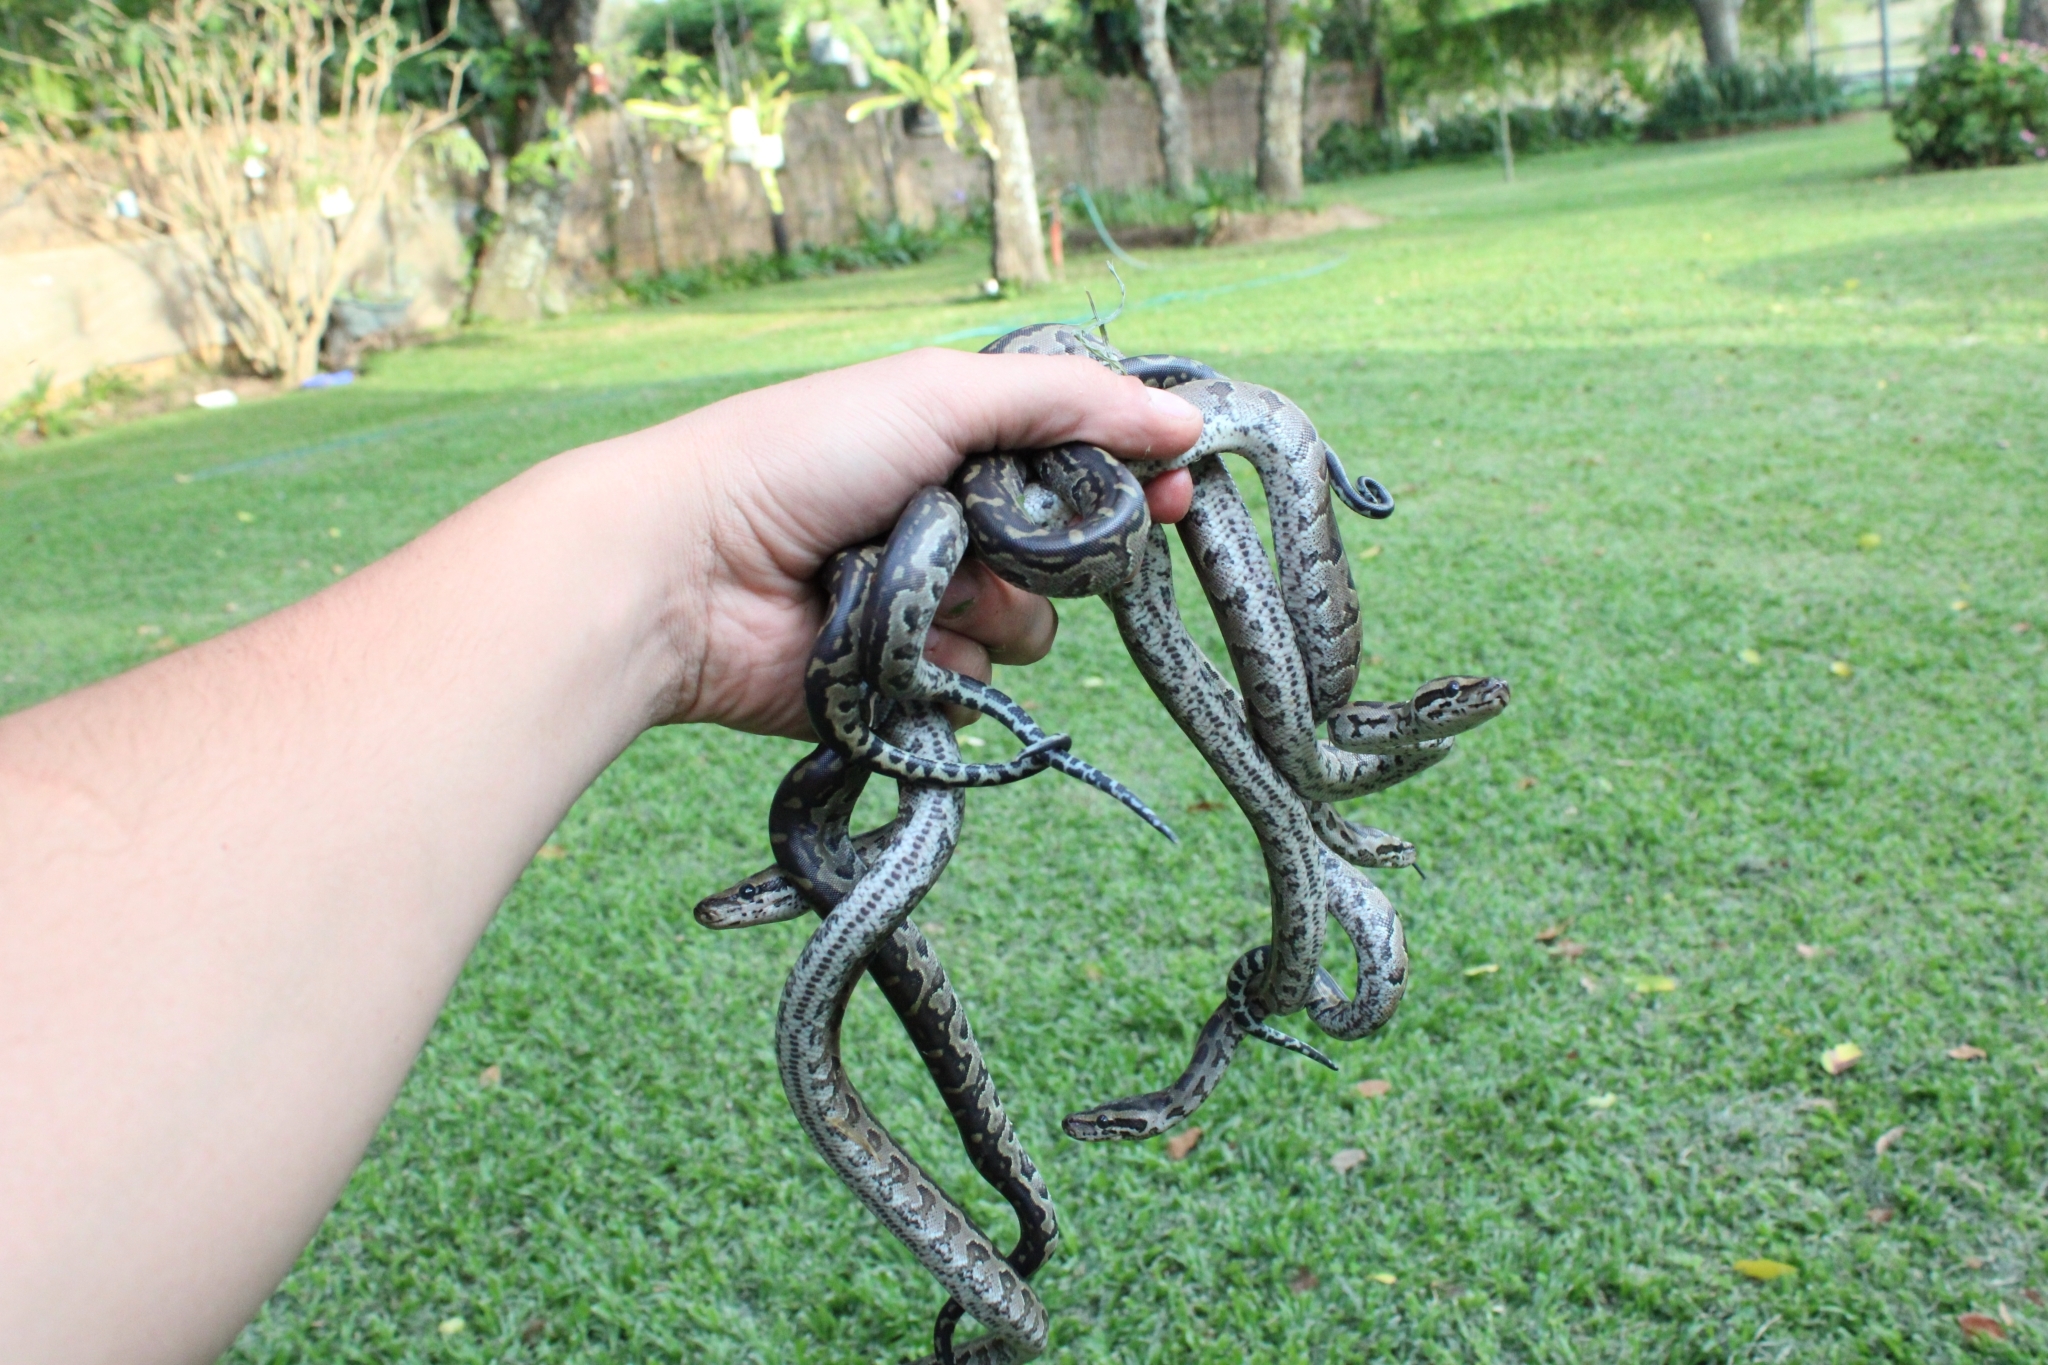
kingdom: Animalia
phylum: Chordata
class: Squamata
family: Pythonidae
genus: Python
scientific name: Python natalensis
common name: Southern african rock python
